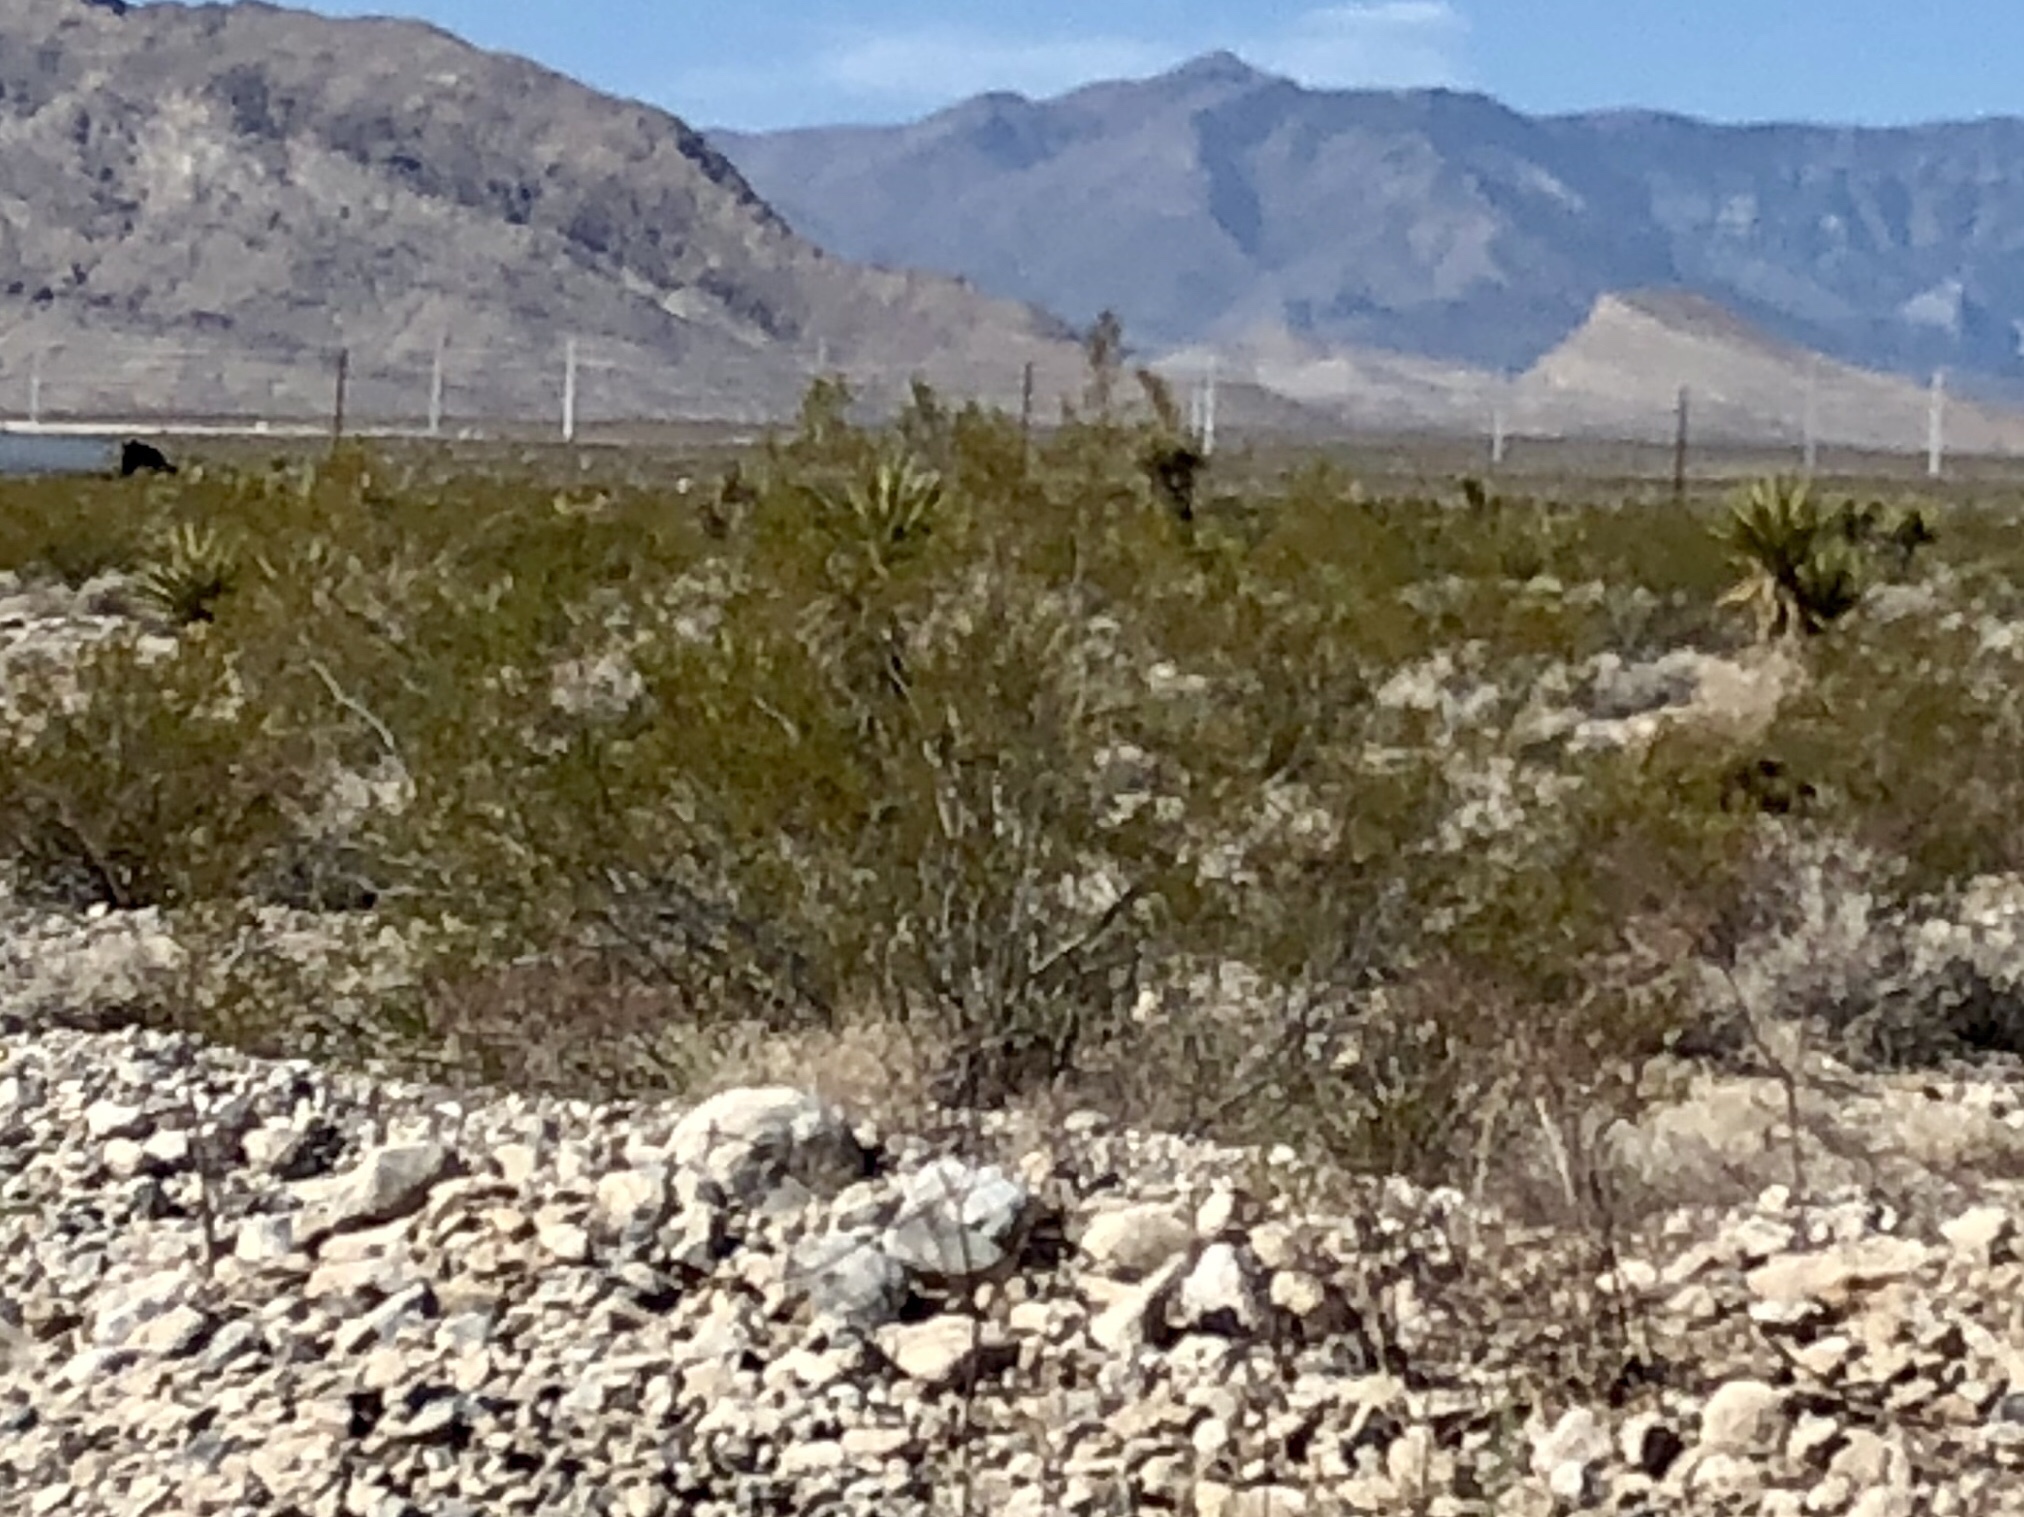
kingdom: Plantae
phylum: Tracheophyta
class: Magnoliopsida
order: Zygophyllales
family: Zygophyllaceae
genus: Larrea
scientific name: Larrea tridentata
